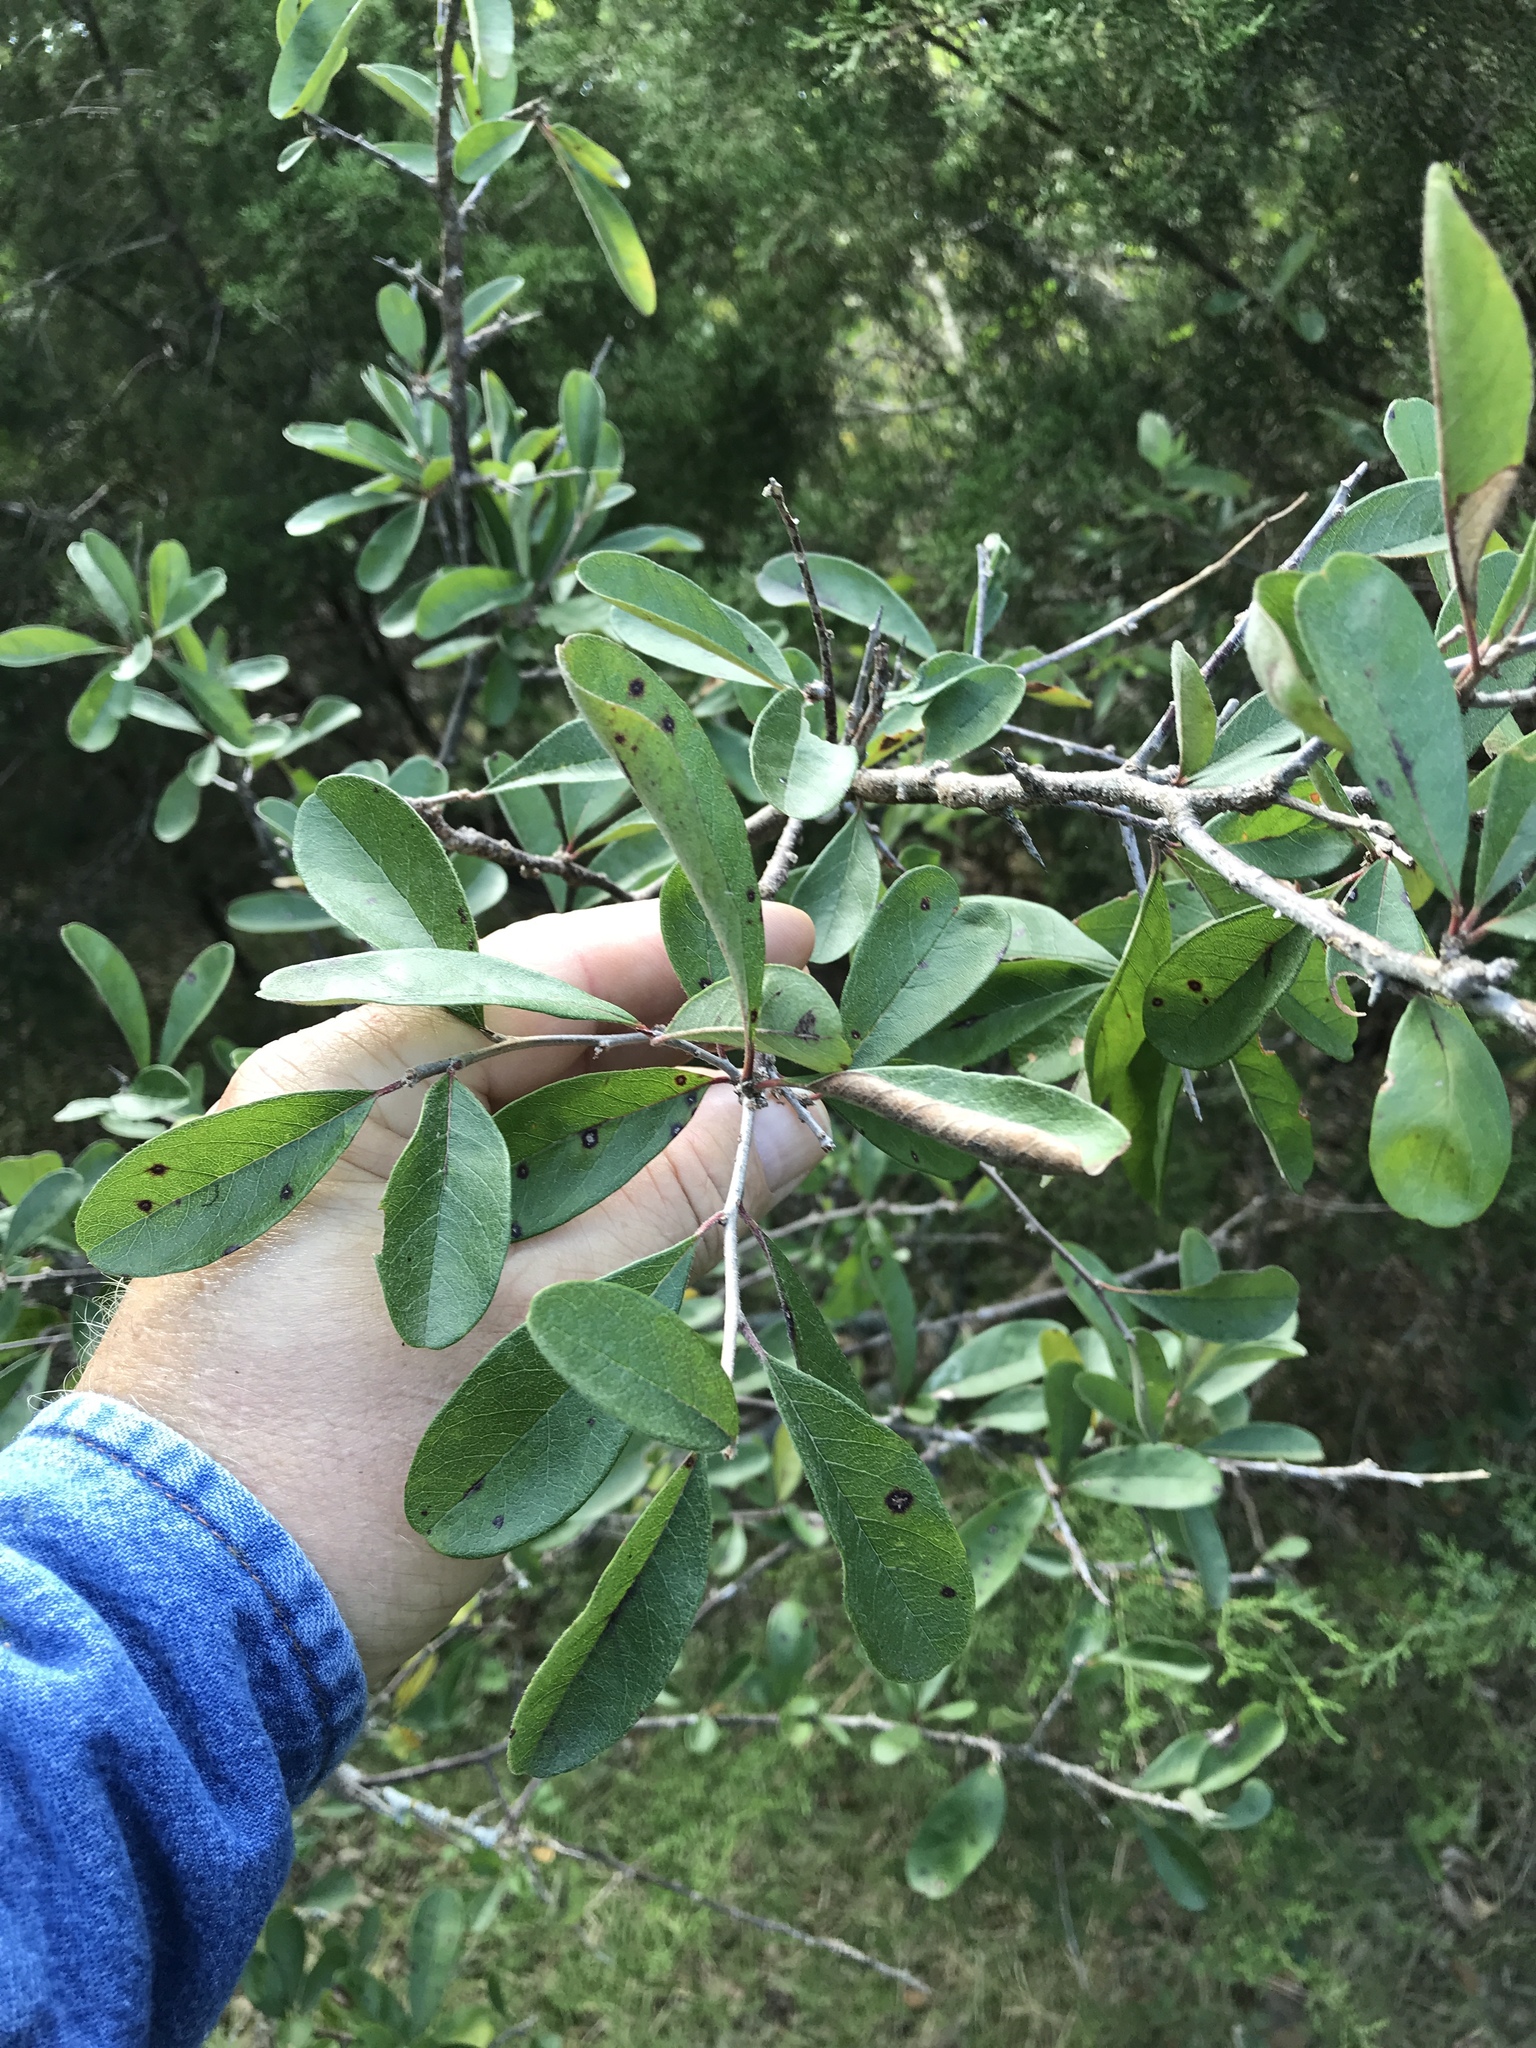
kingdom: Plantae
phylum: Tracheophyta
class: Magnoliopsida
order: Ericales
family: Sapotaceae
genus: Sideroxylon
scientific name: Sideroxylon lanuginosum
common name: Chittamwood
